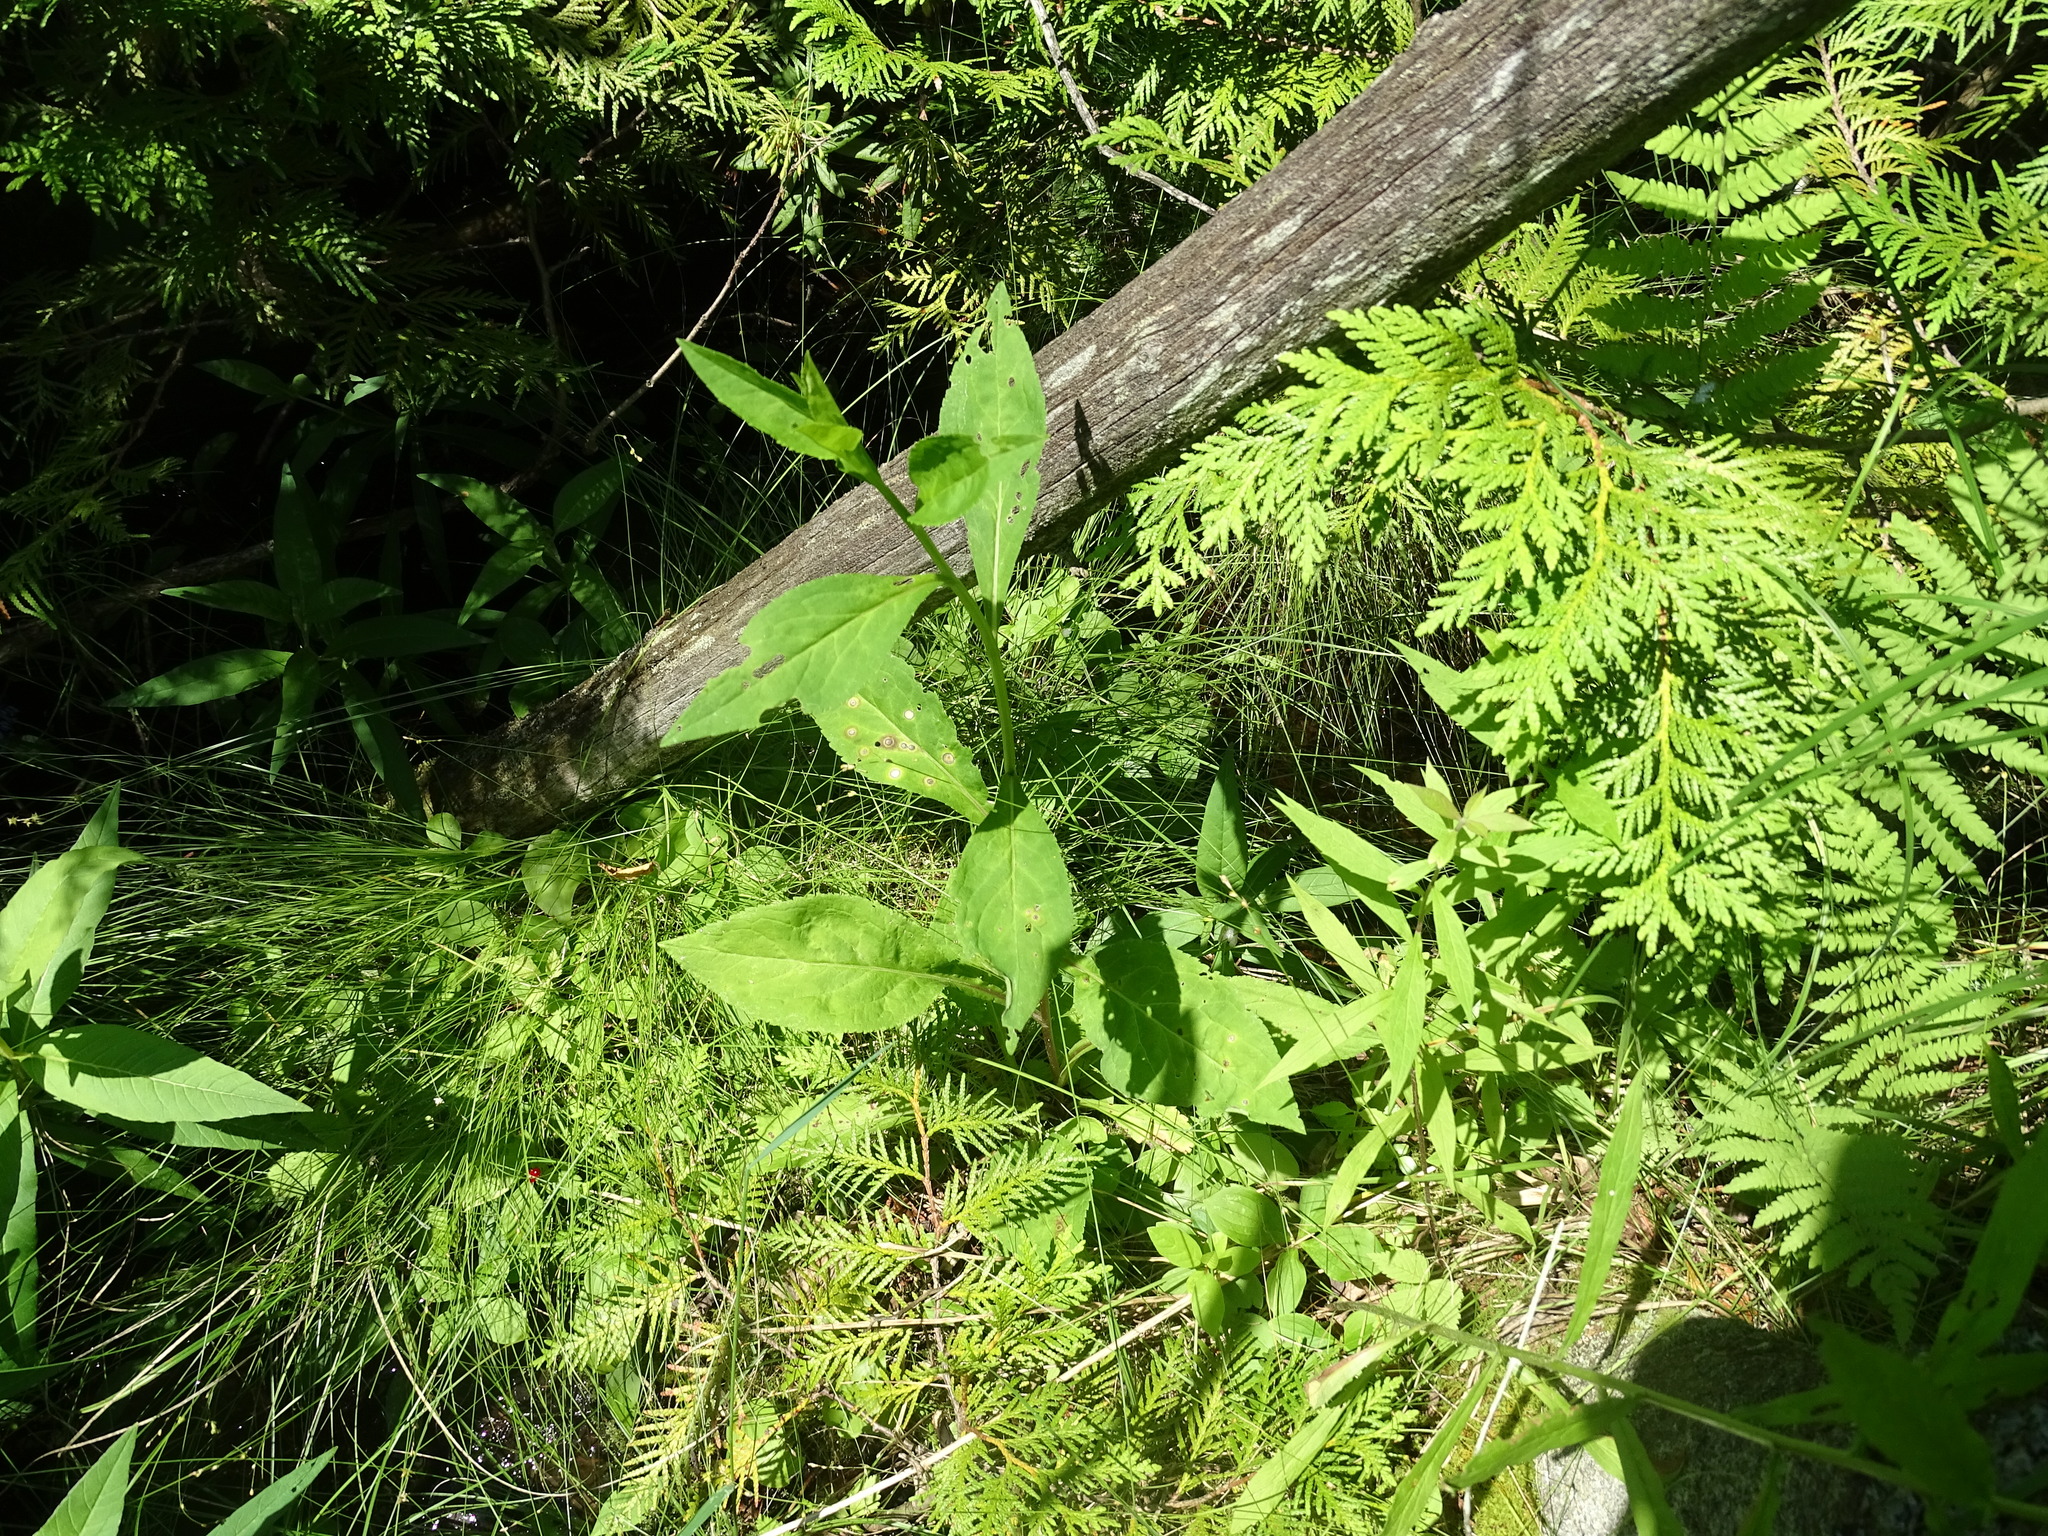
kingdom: Plantae
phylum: Tracheophyta
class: Magnoliopsida
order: Asterales
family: Asteraceae
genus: Solidago
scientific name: Solidago patula
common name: Rough-leaf goldenrod
